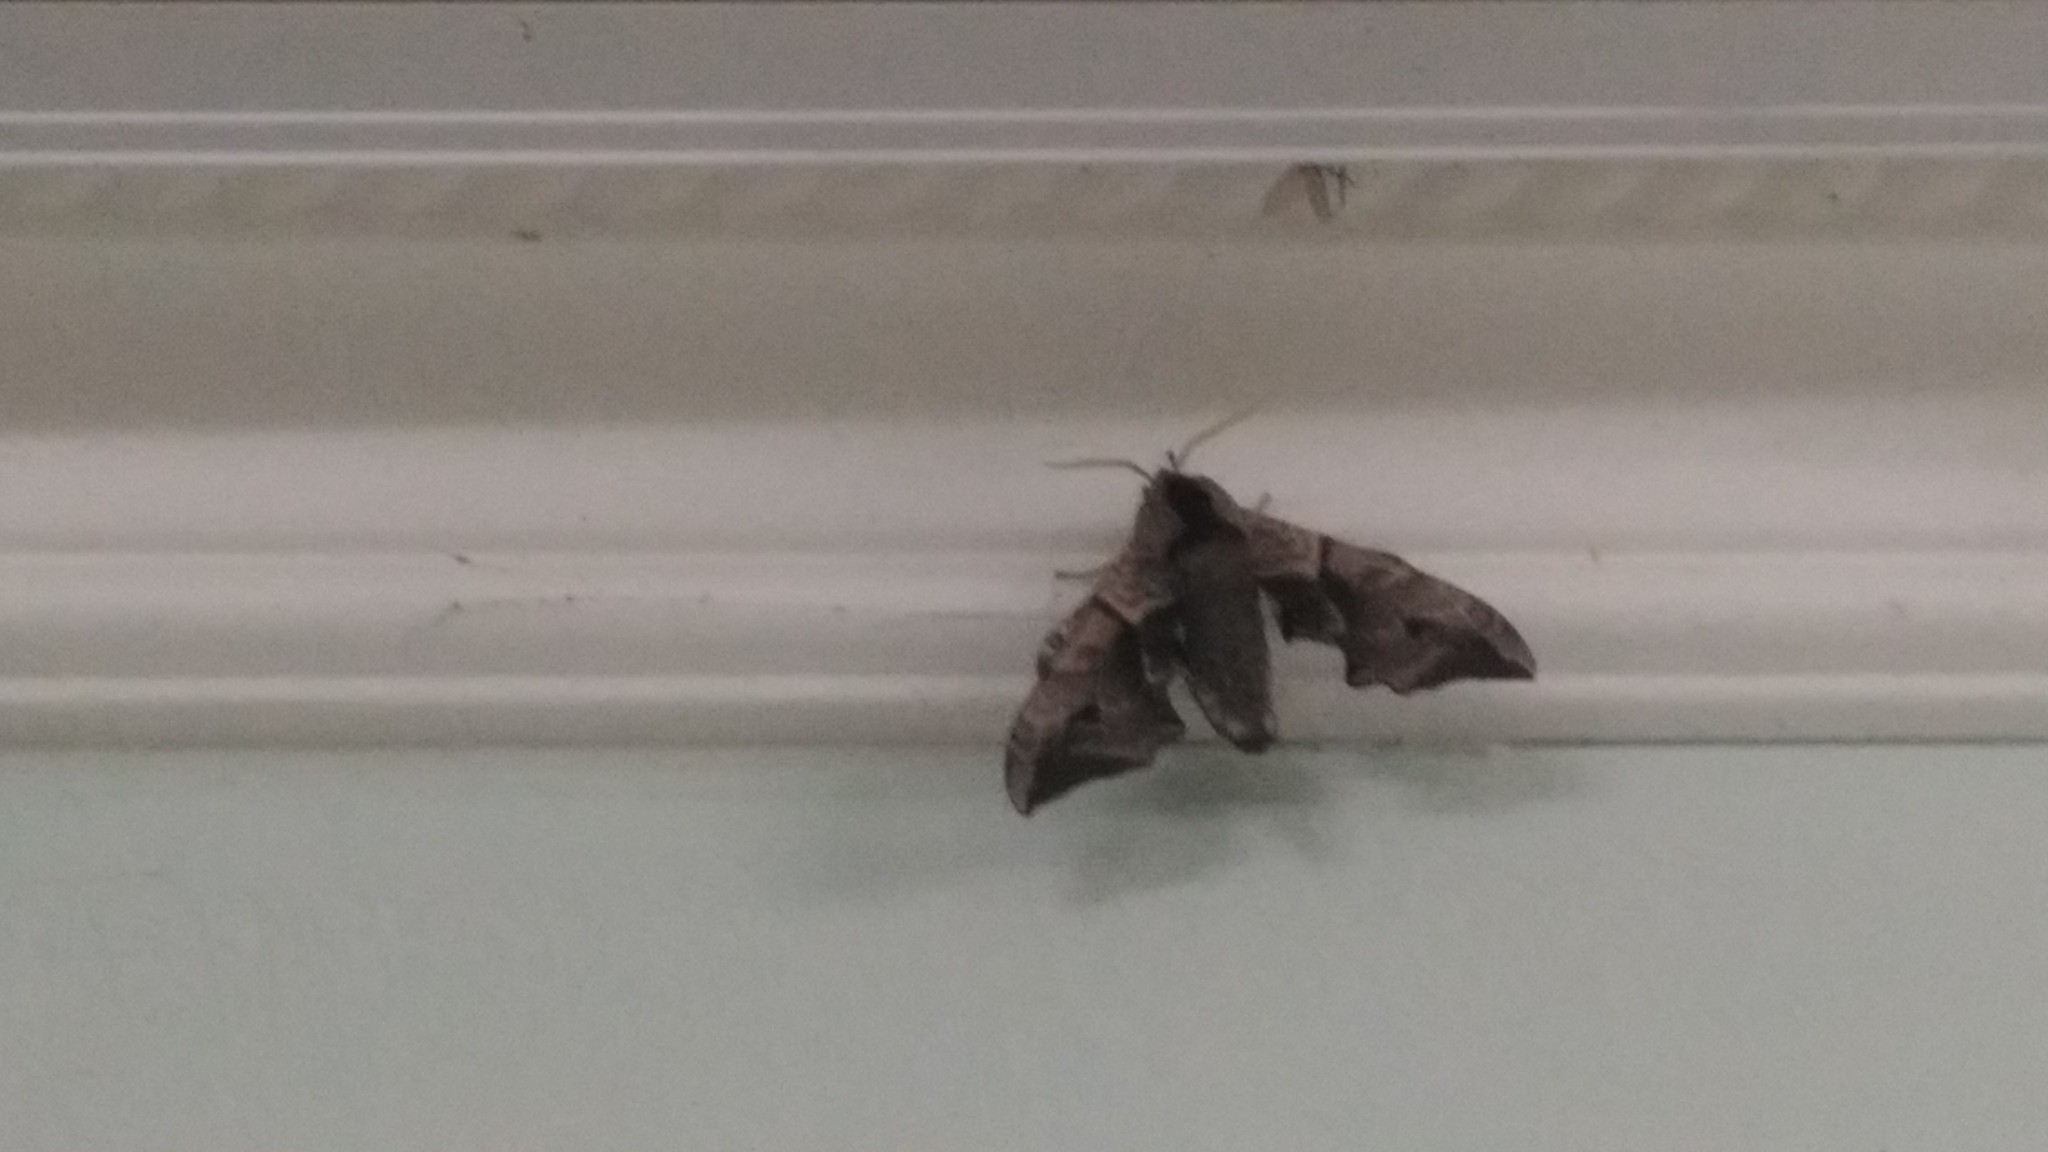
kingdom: Animalia
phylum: Arthropoda
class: Insecta
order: Lepidoptera
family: Sphingidae
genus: Smerinthus
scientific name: Smerinthus ocellata
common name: Eyed hawk-moth
